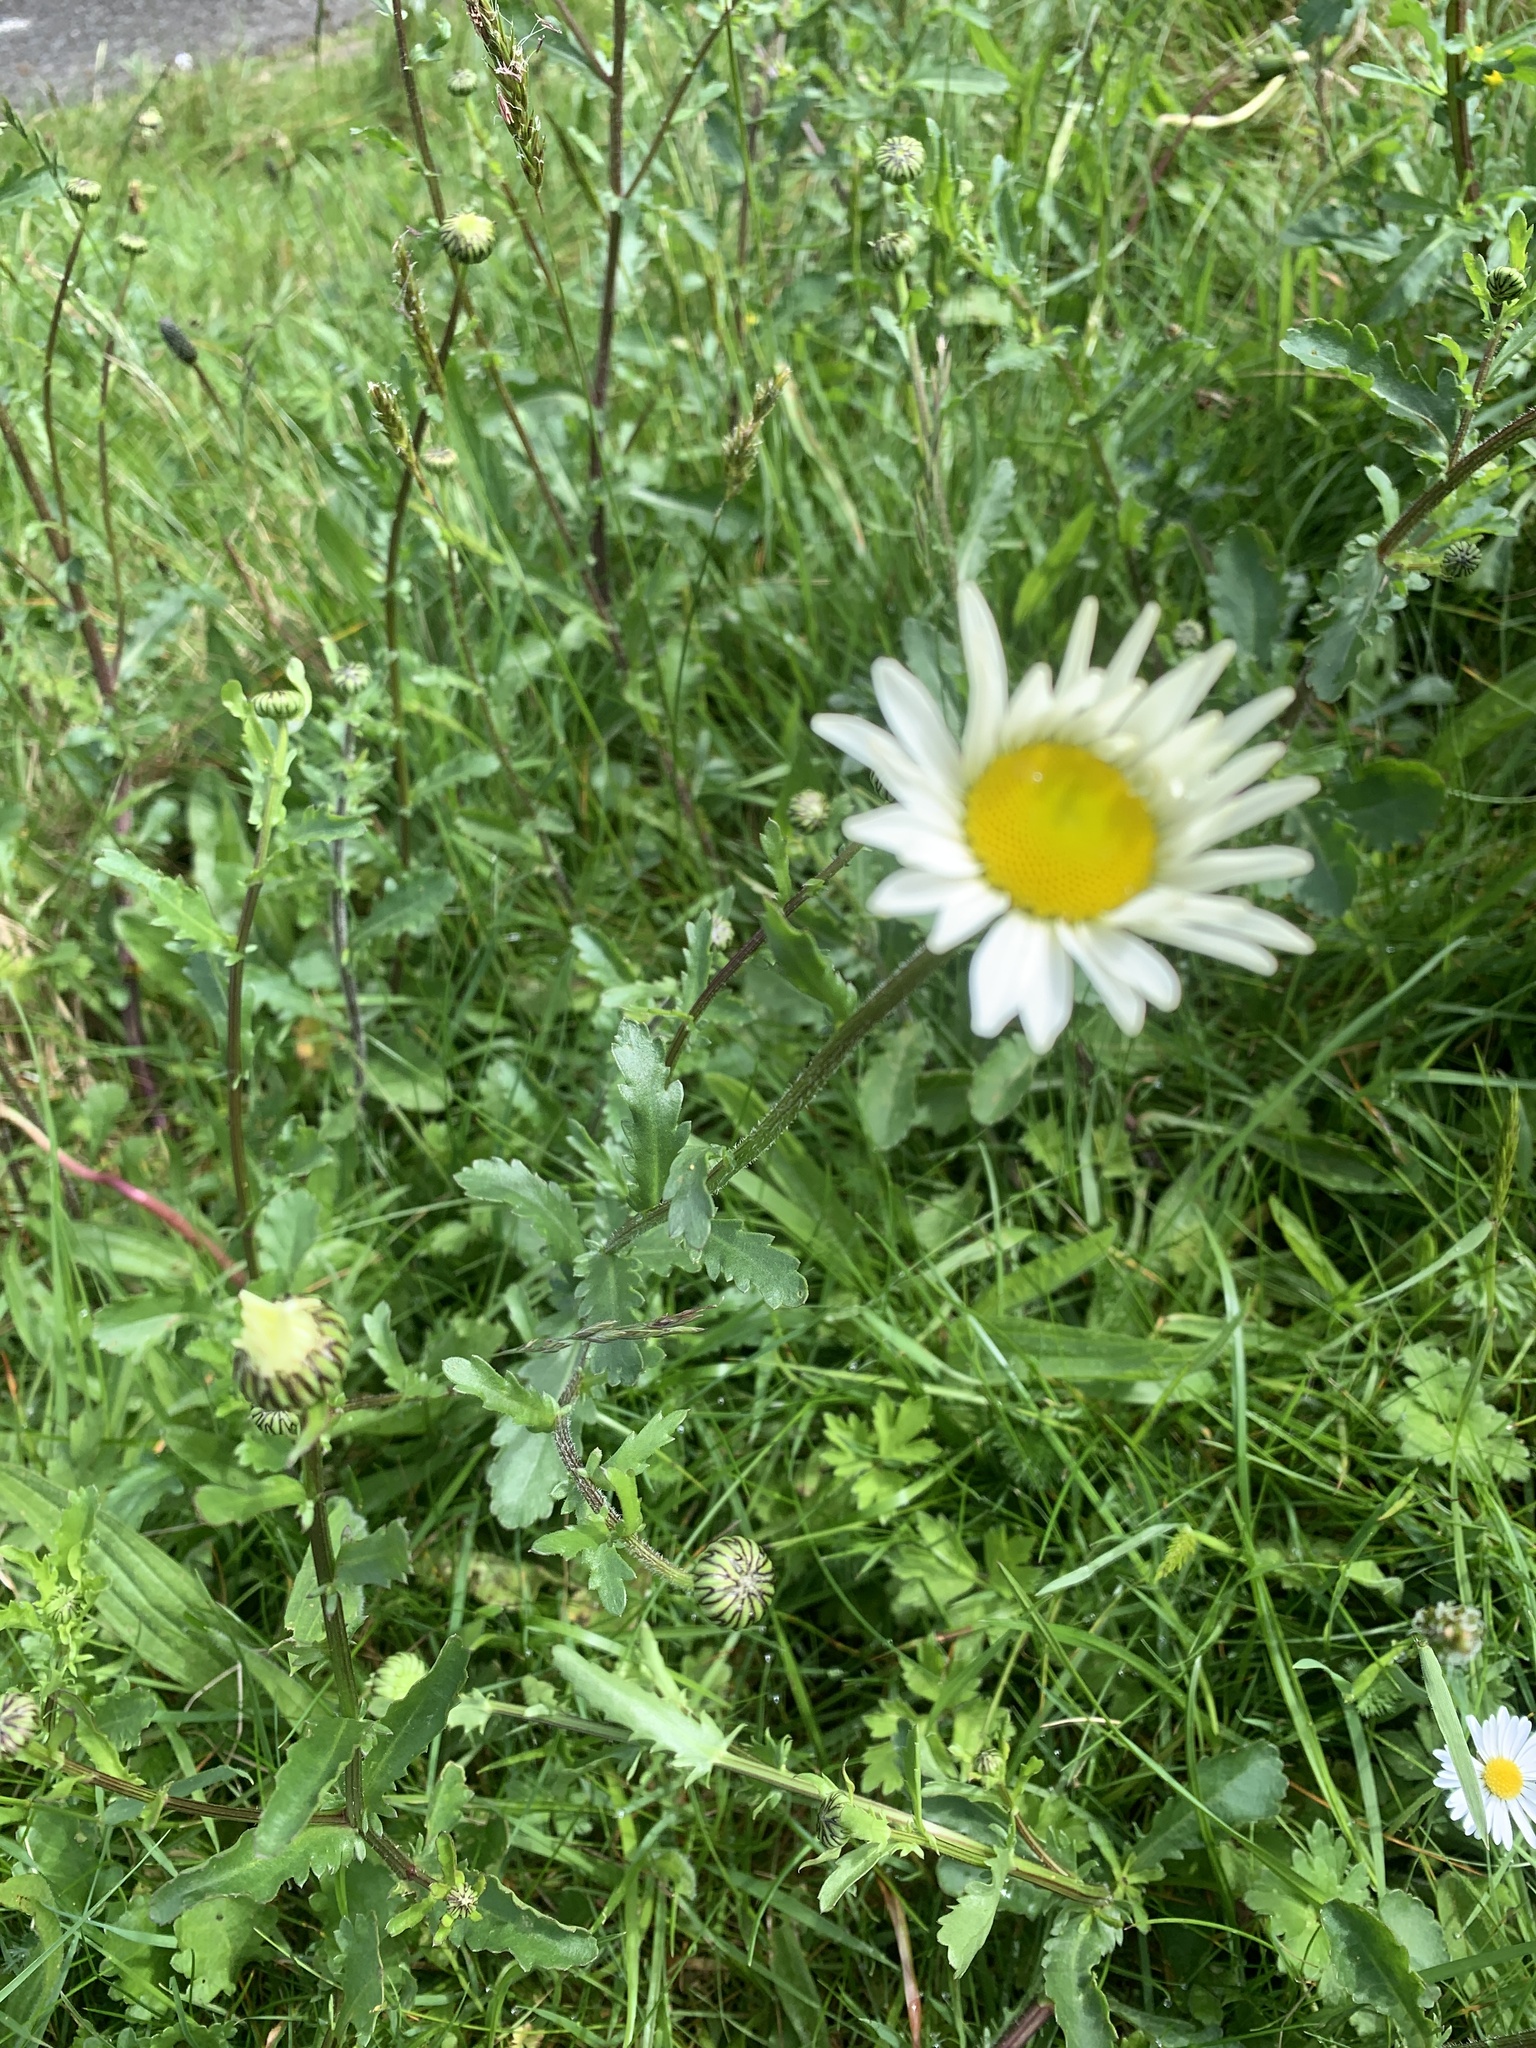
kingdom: Plantae
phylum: Tracheophyta
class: Magnoliopsida
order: Asterales
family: Asteraceae
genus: Leucanthemum
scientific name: Leucanthemum vulgare
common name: Oxeye daisy
